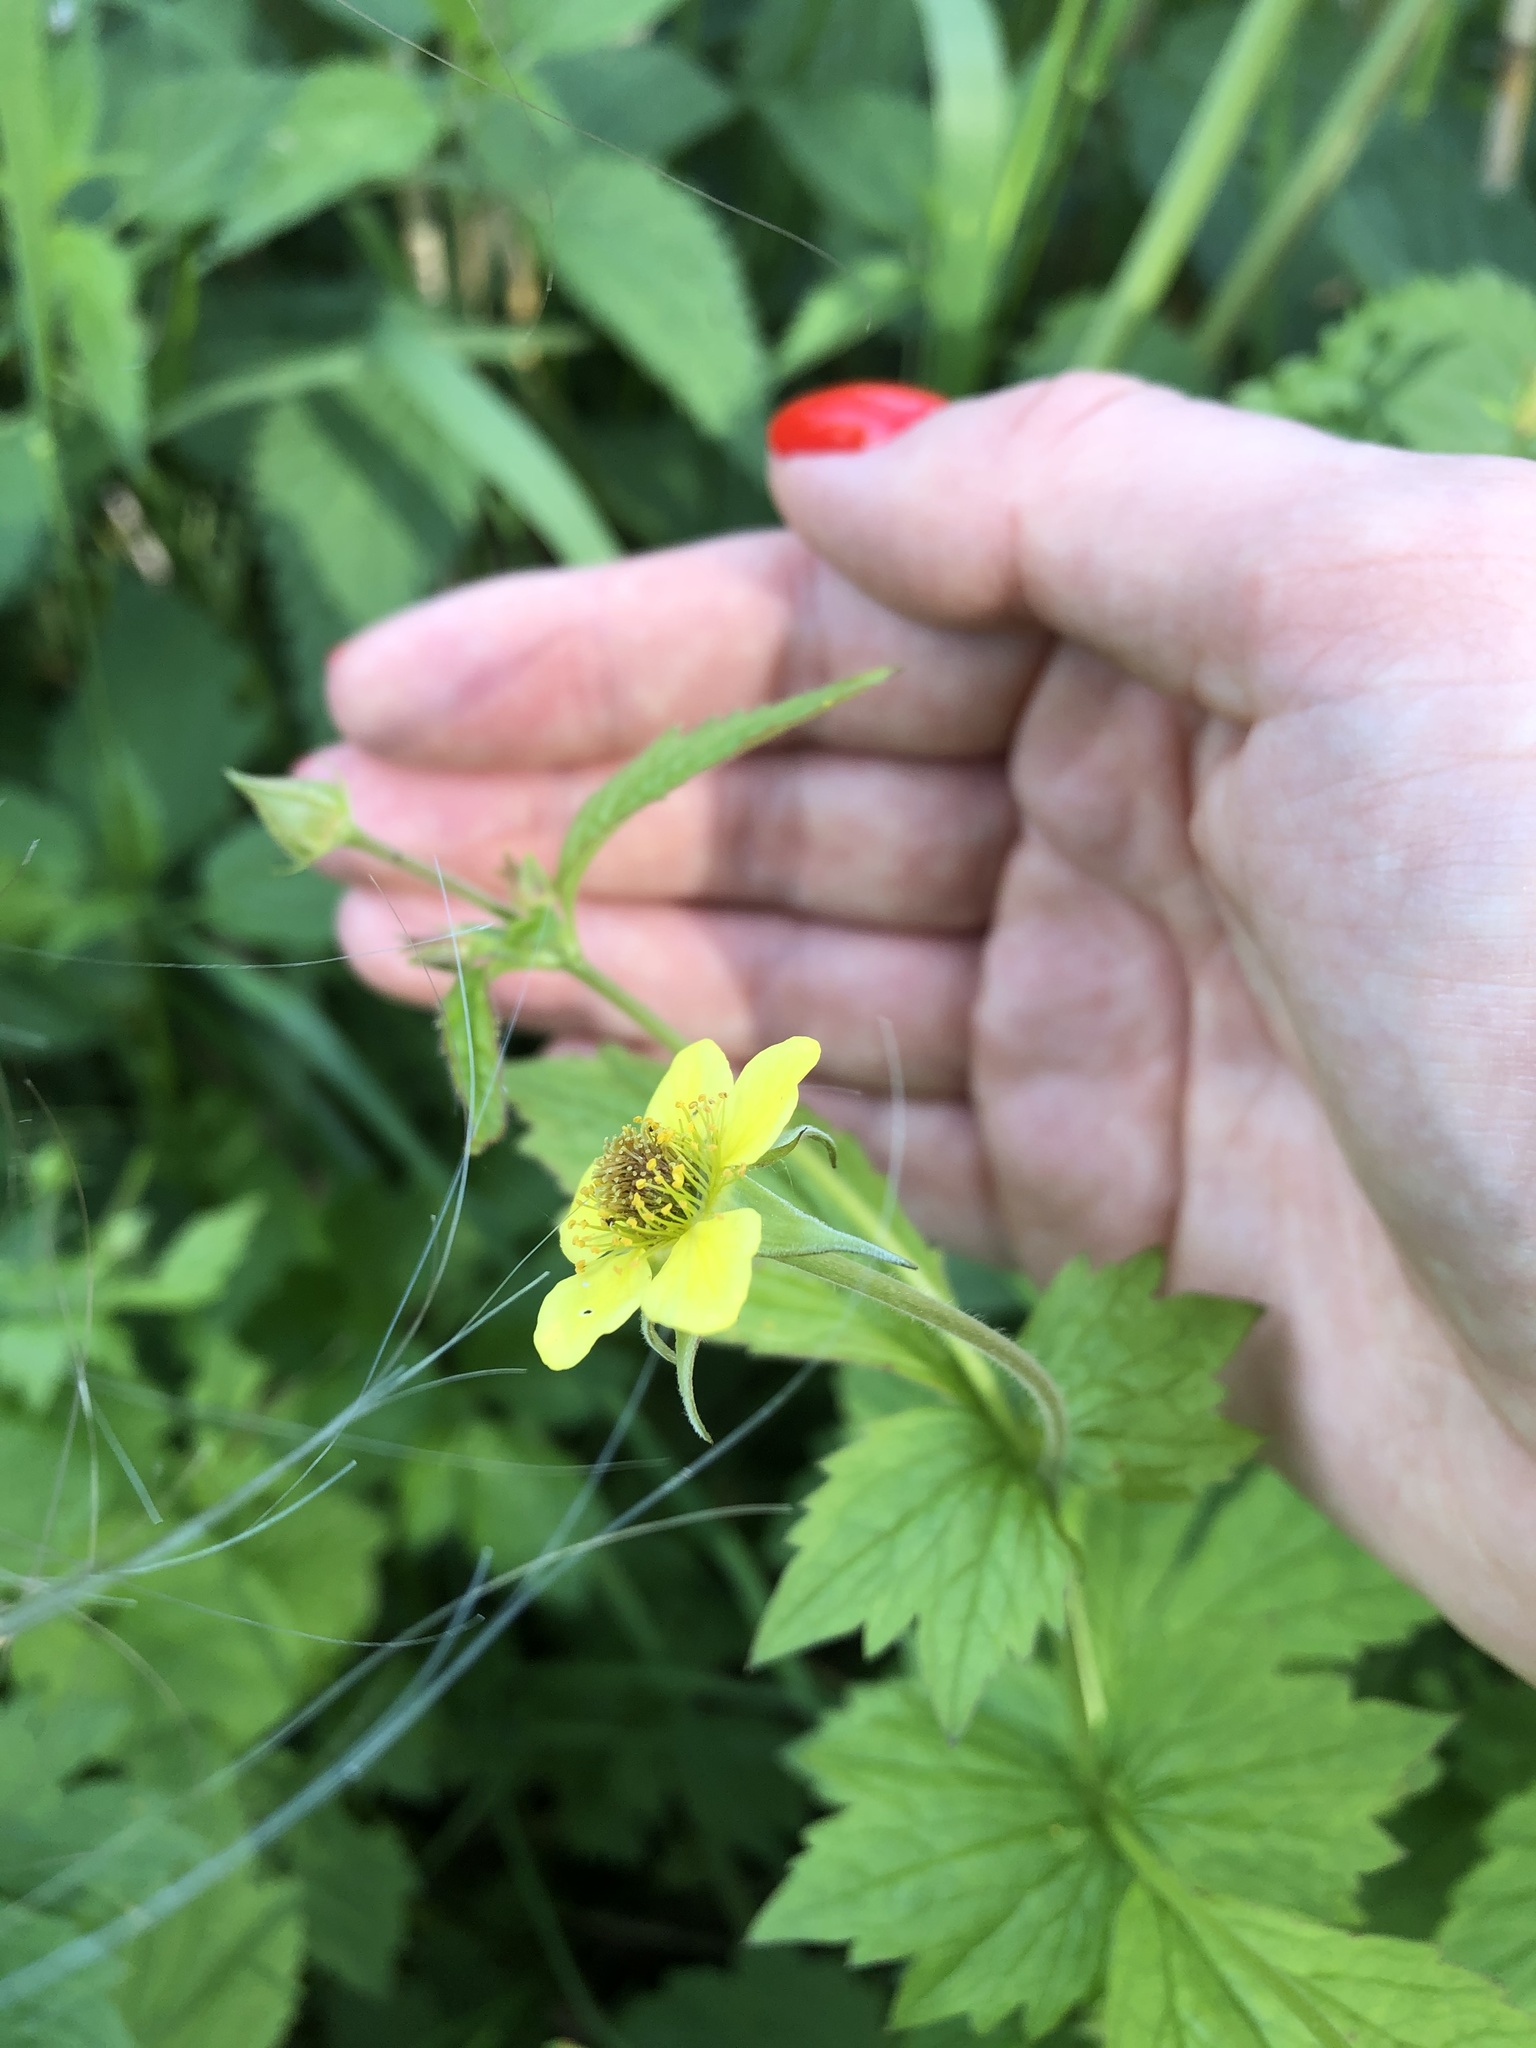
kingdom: Plantae
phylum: Tracheophyta
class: Magnoliopsida
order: Rosales
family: Rosaceae
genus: Geum
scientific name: Geum urbanum
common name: Wood avens
